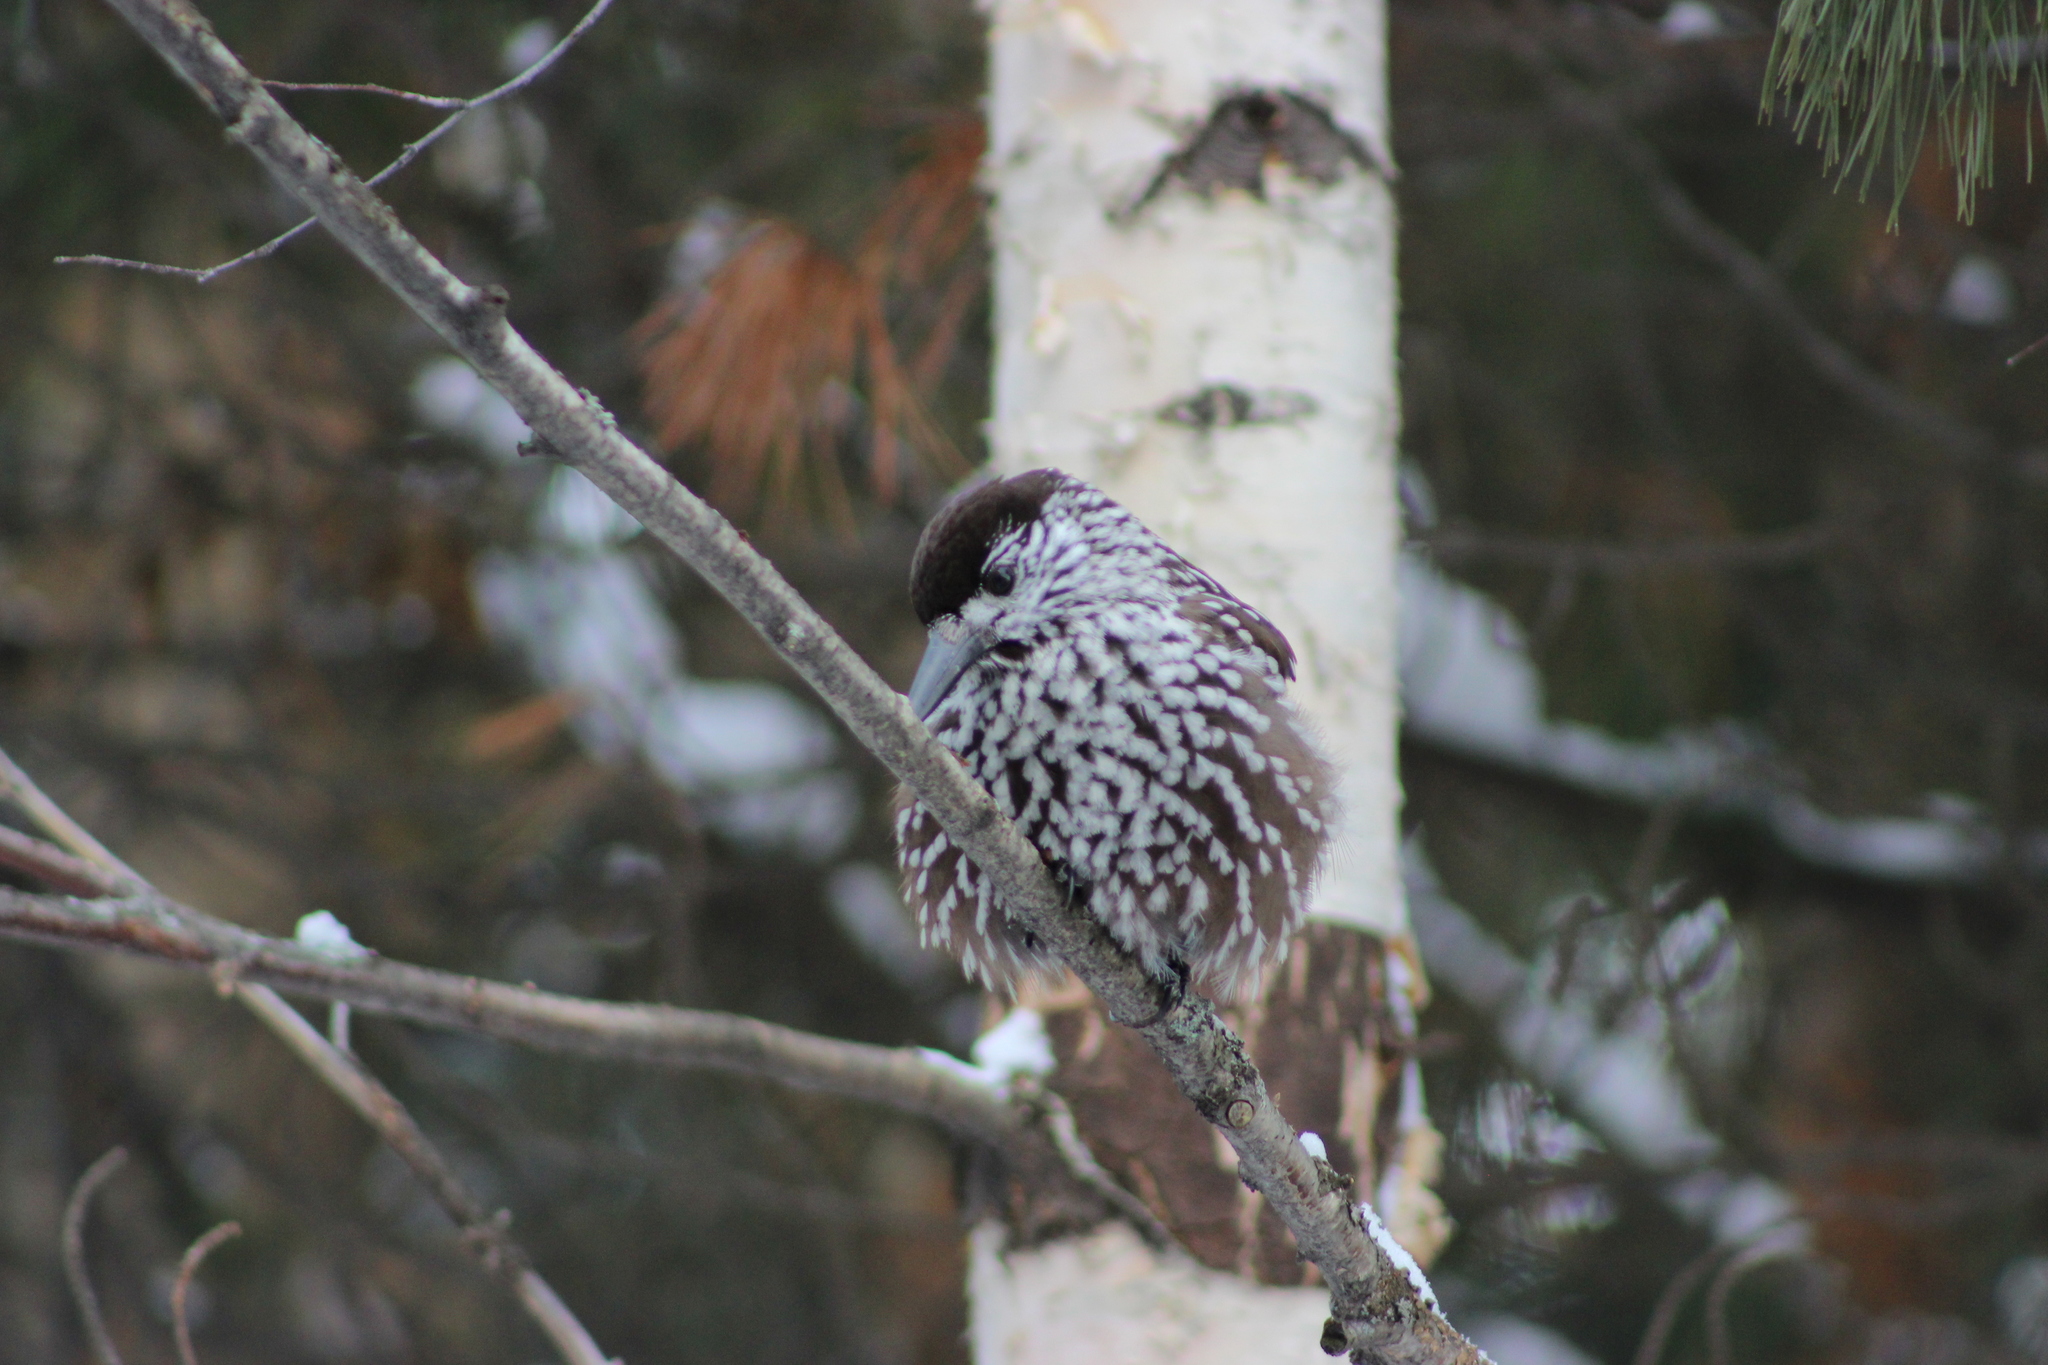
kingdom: Animalia
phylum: Chordata
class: Aves
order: Passeriformes
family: Corvidae
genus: Nucifraga
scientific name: Nucifraga caryocatactes
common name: Spotted nutcracker
